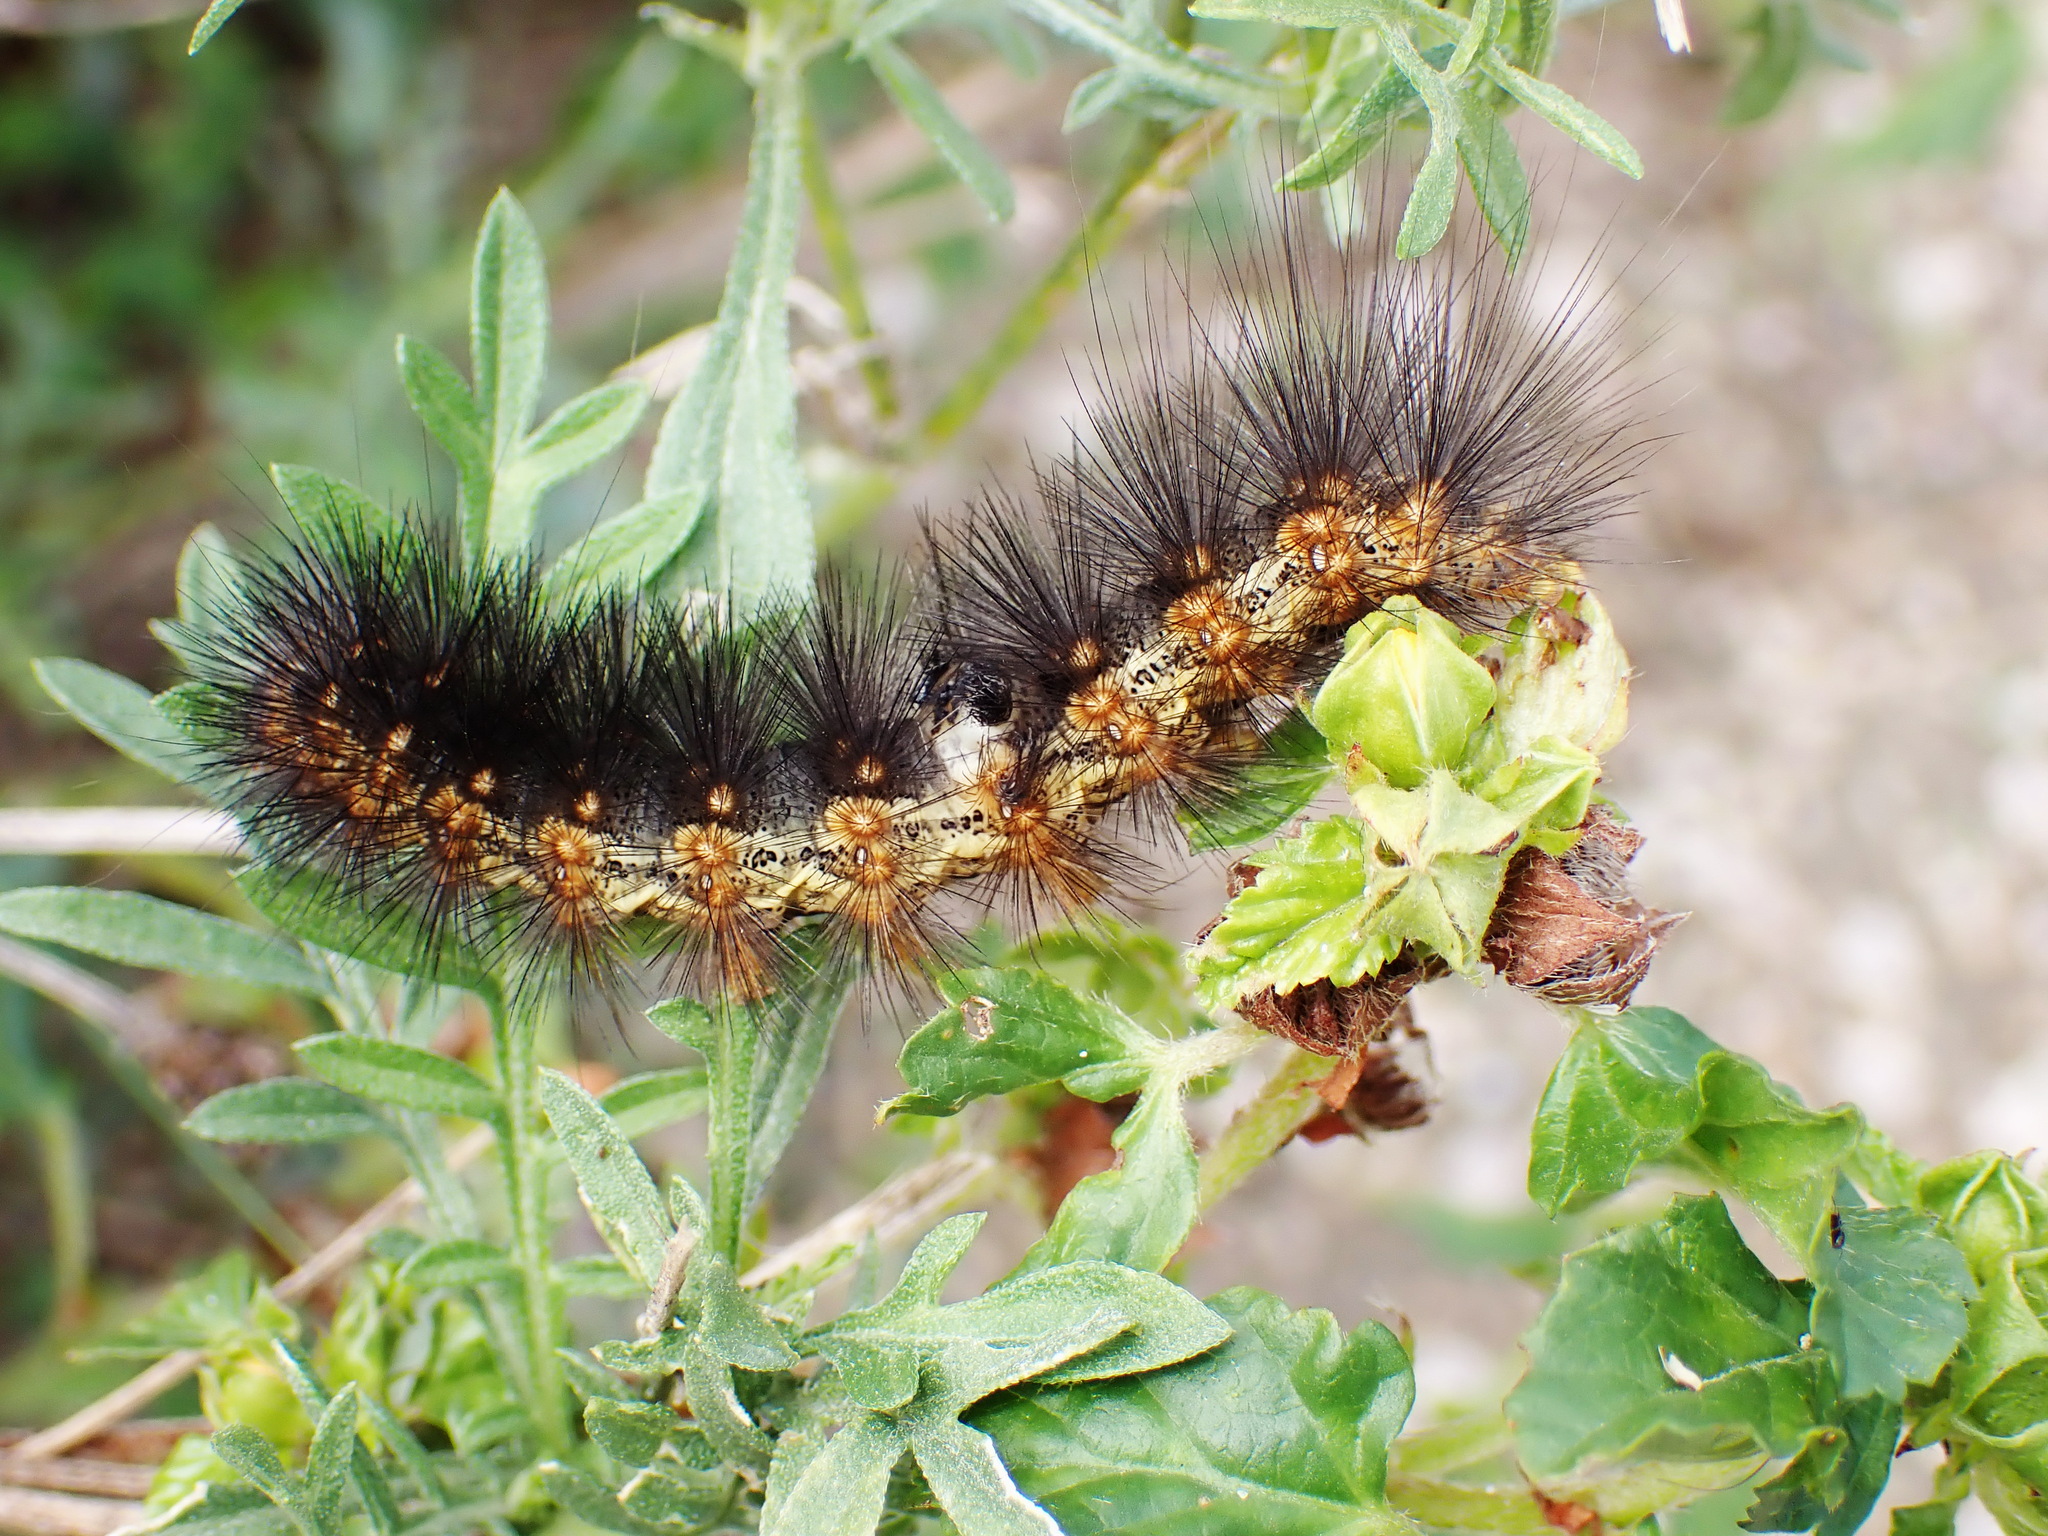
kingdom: Animalia
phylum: Arthropoda
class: Insecta
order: Lepidoptera
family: Erebidae
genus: Estigmene
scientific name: Estigmene acrea
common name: Salt marsh moth
